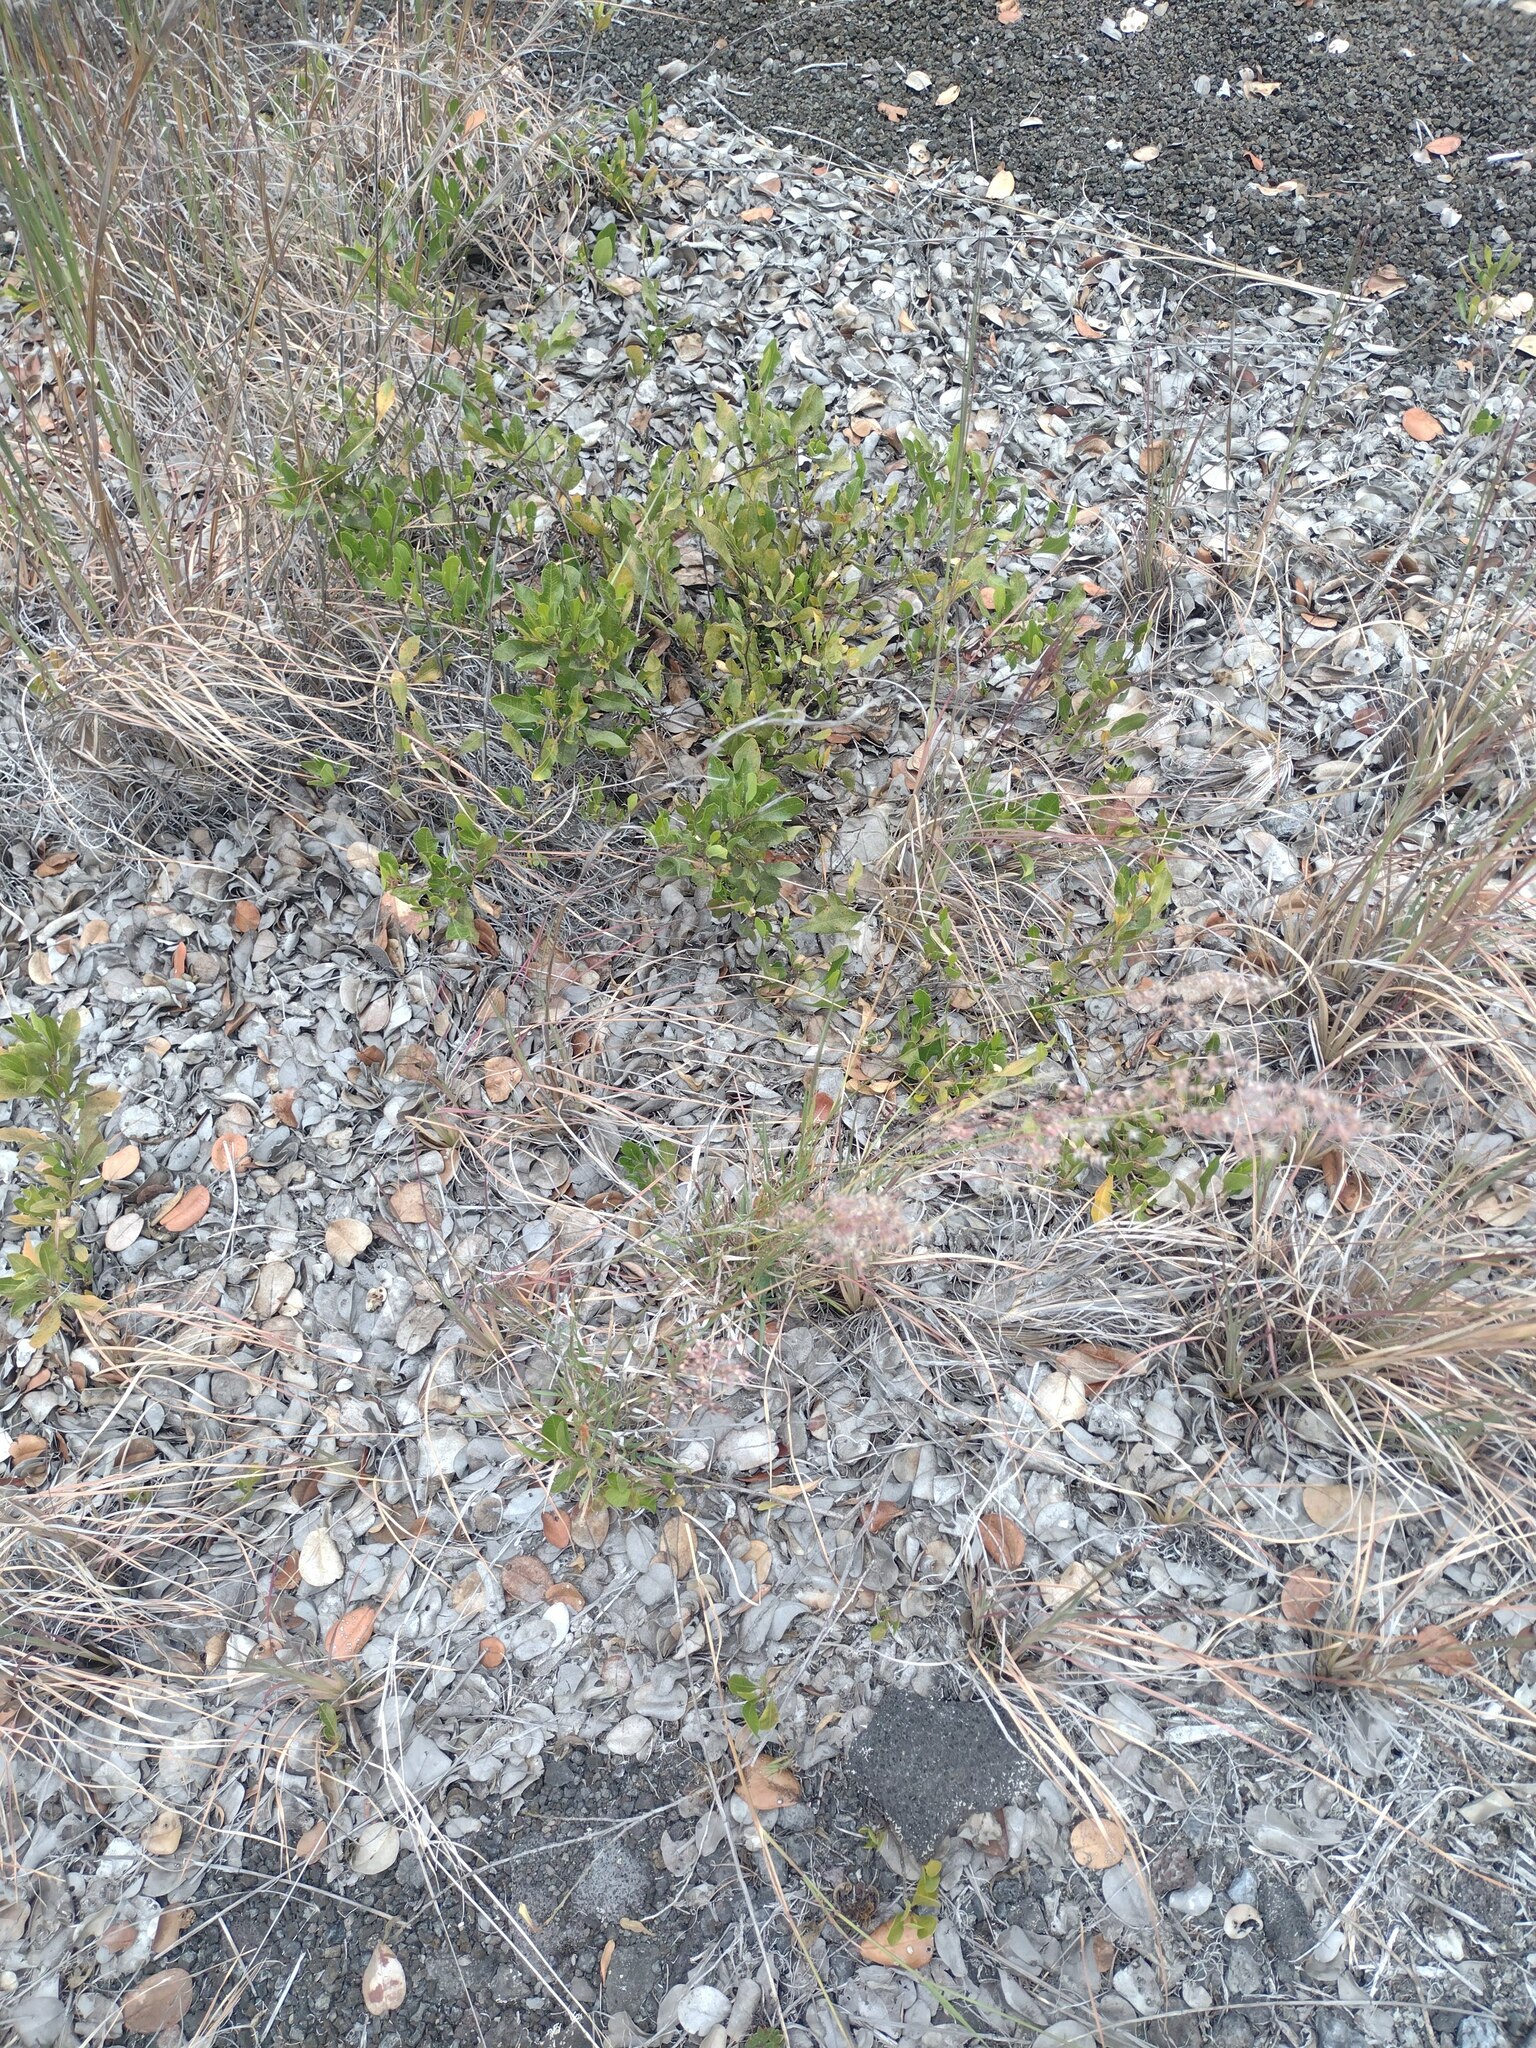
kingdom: Plantae
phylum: Tracheophyta
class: Liliopsida
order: Poales
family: Poaceae
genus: Melinis
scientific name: Melinis repens
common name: Rose natal grass
